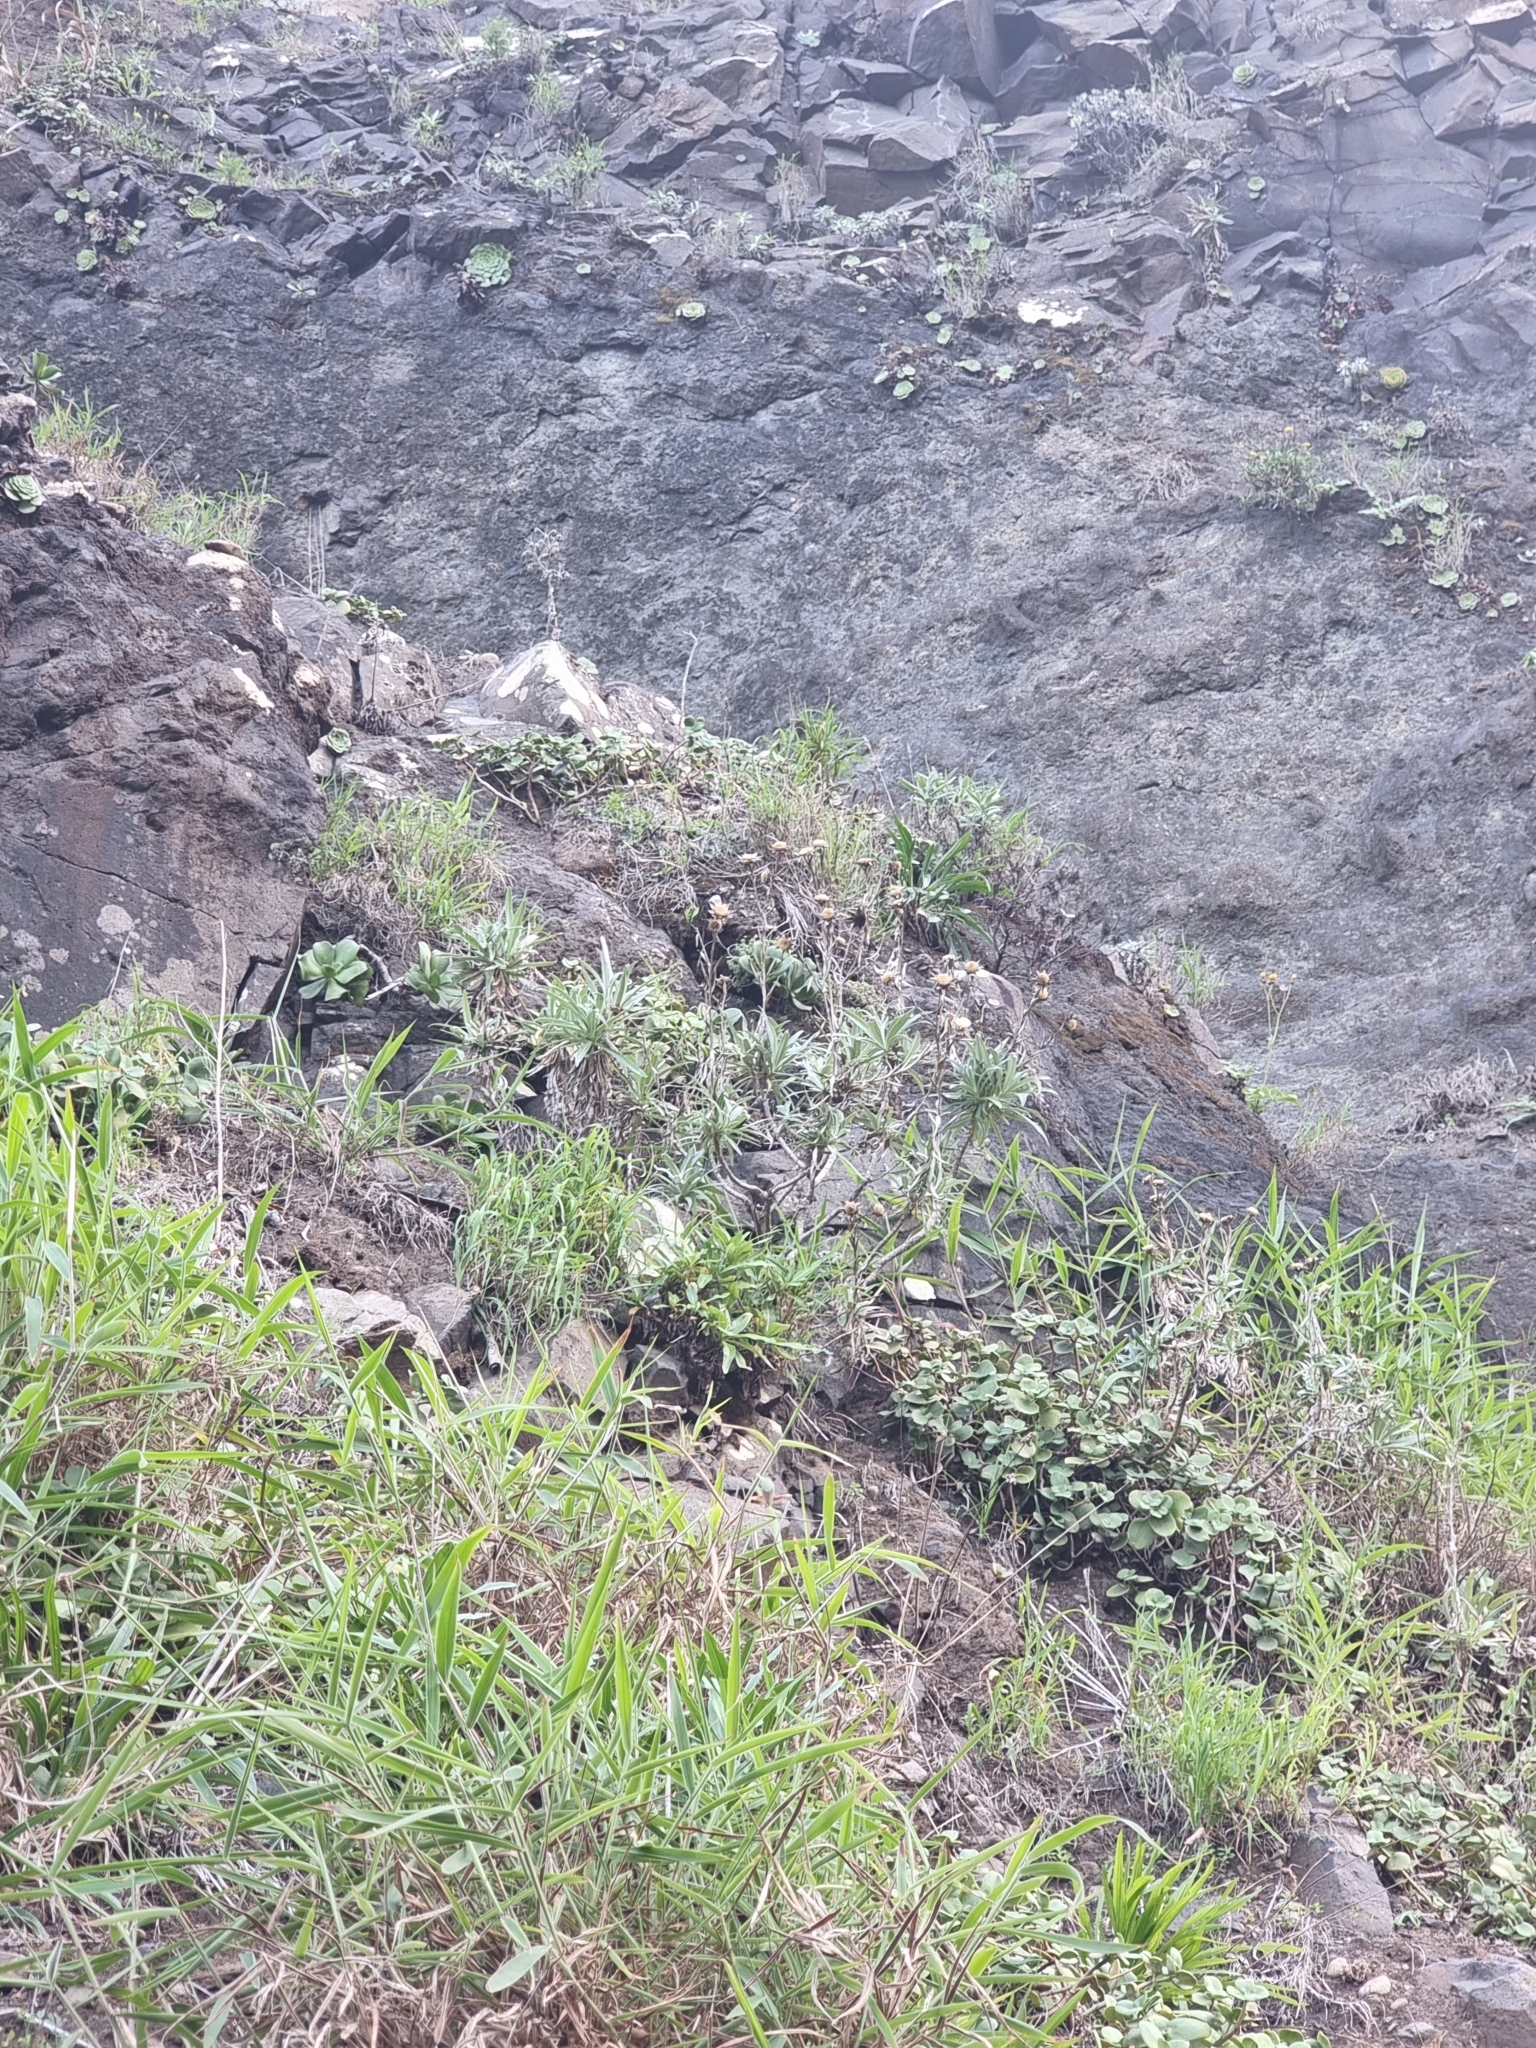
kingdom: Plantae
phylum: Tracheophyta
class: Magnoliopsida
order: Asterales
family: Asteraceae
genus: Carlina
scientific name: Carlina salicifolia
